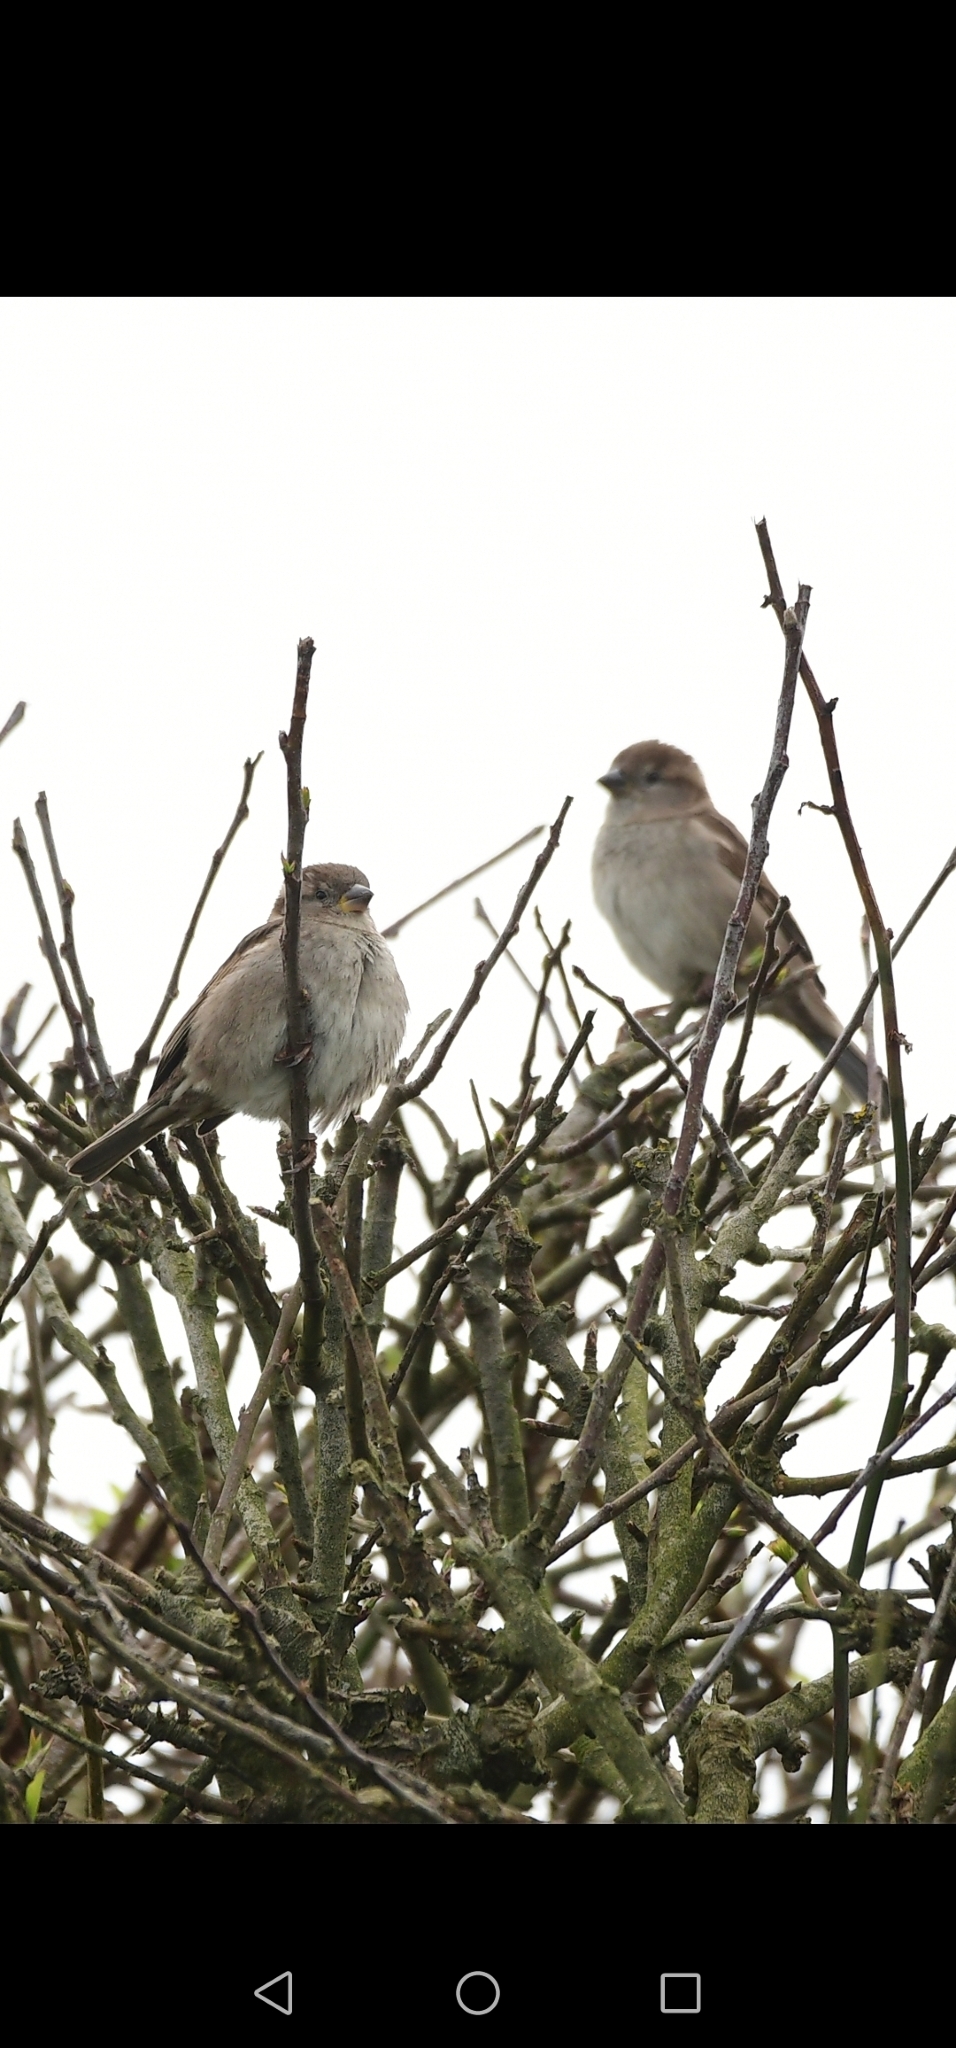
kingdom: Animalia
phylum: Chordata
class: Aves
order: Passeriformes
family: Passeridae
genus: Passer
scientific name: Passer domesticus
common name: House sparrow
